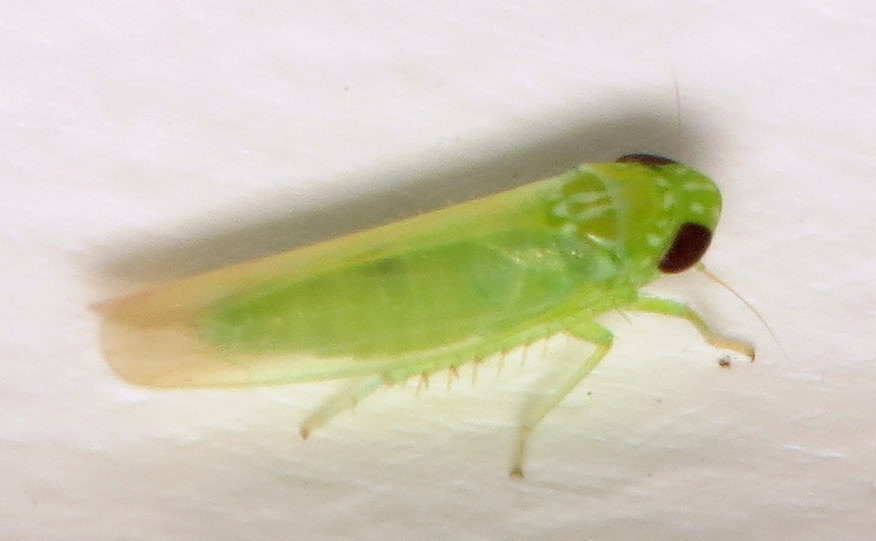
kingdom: Animalia
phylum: Arthropoda
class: Insecta
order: Hemiptera
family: Cicadellidae
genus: Empoasca
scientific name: Empoasca fabae
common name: Potato leafhopper
